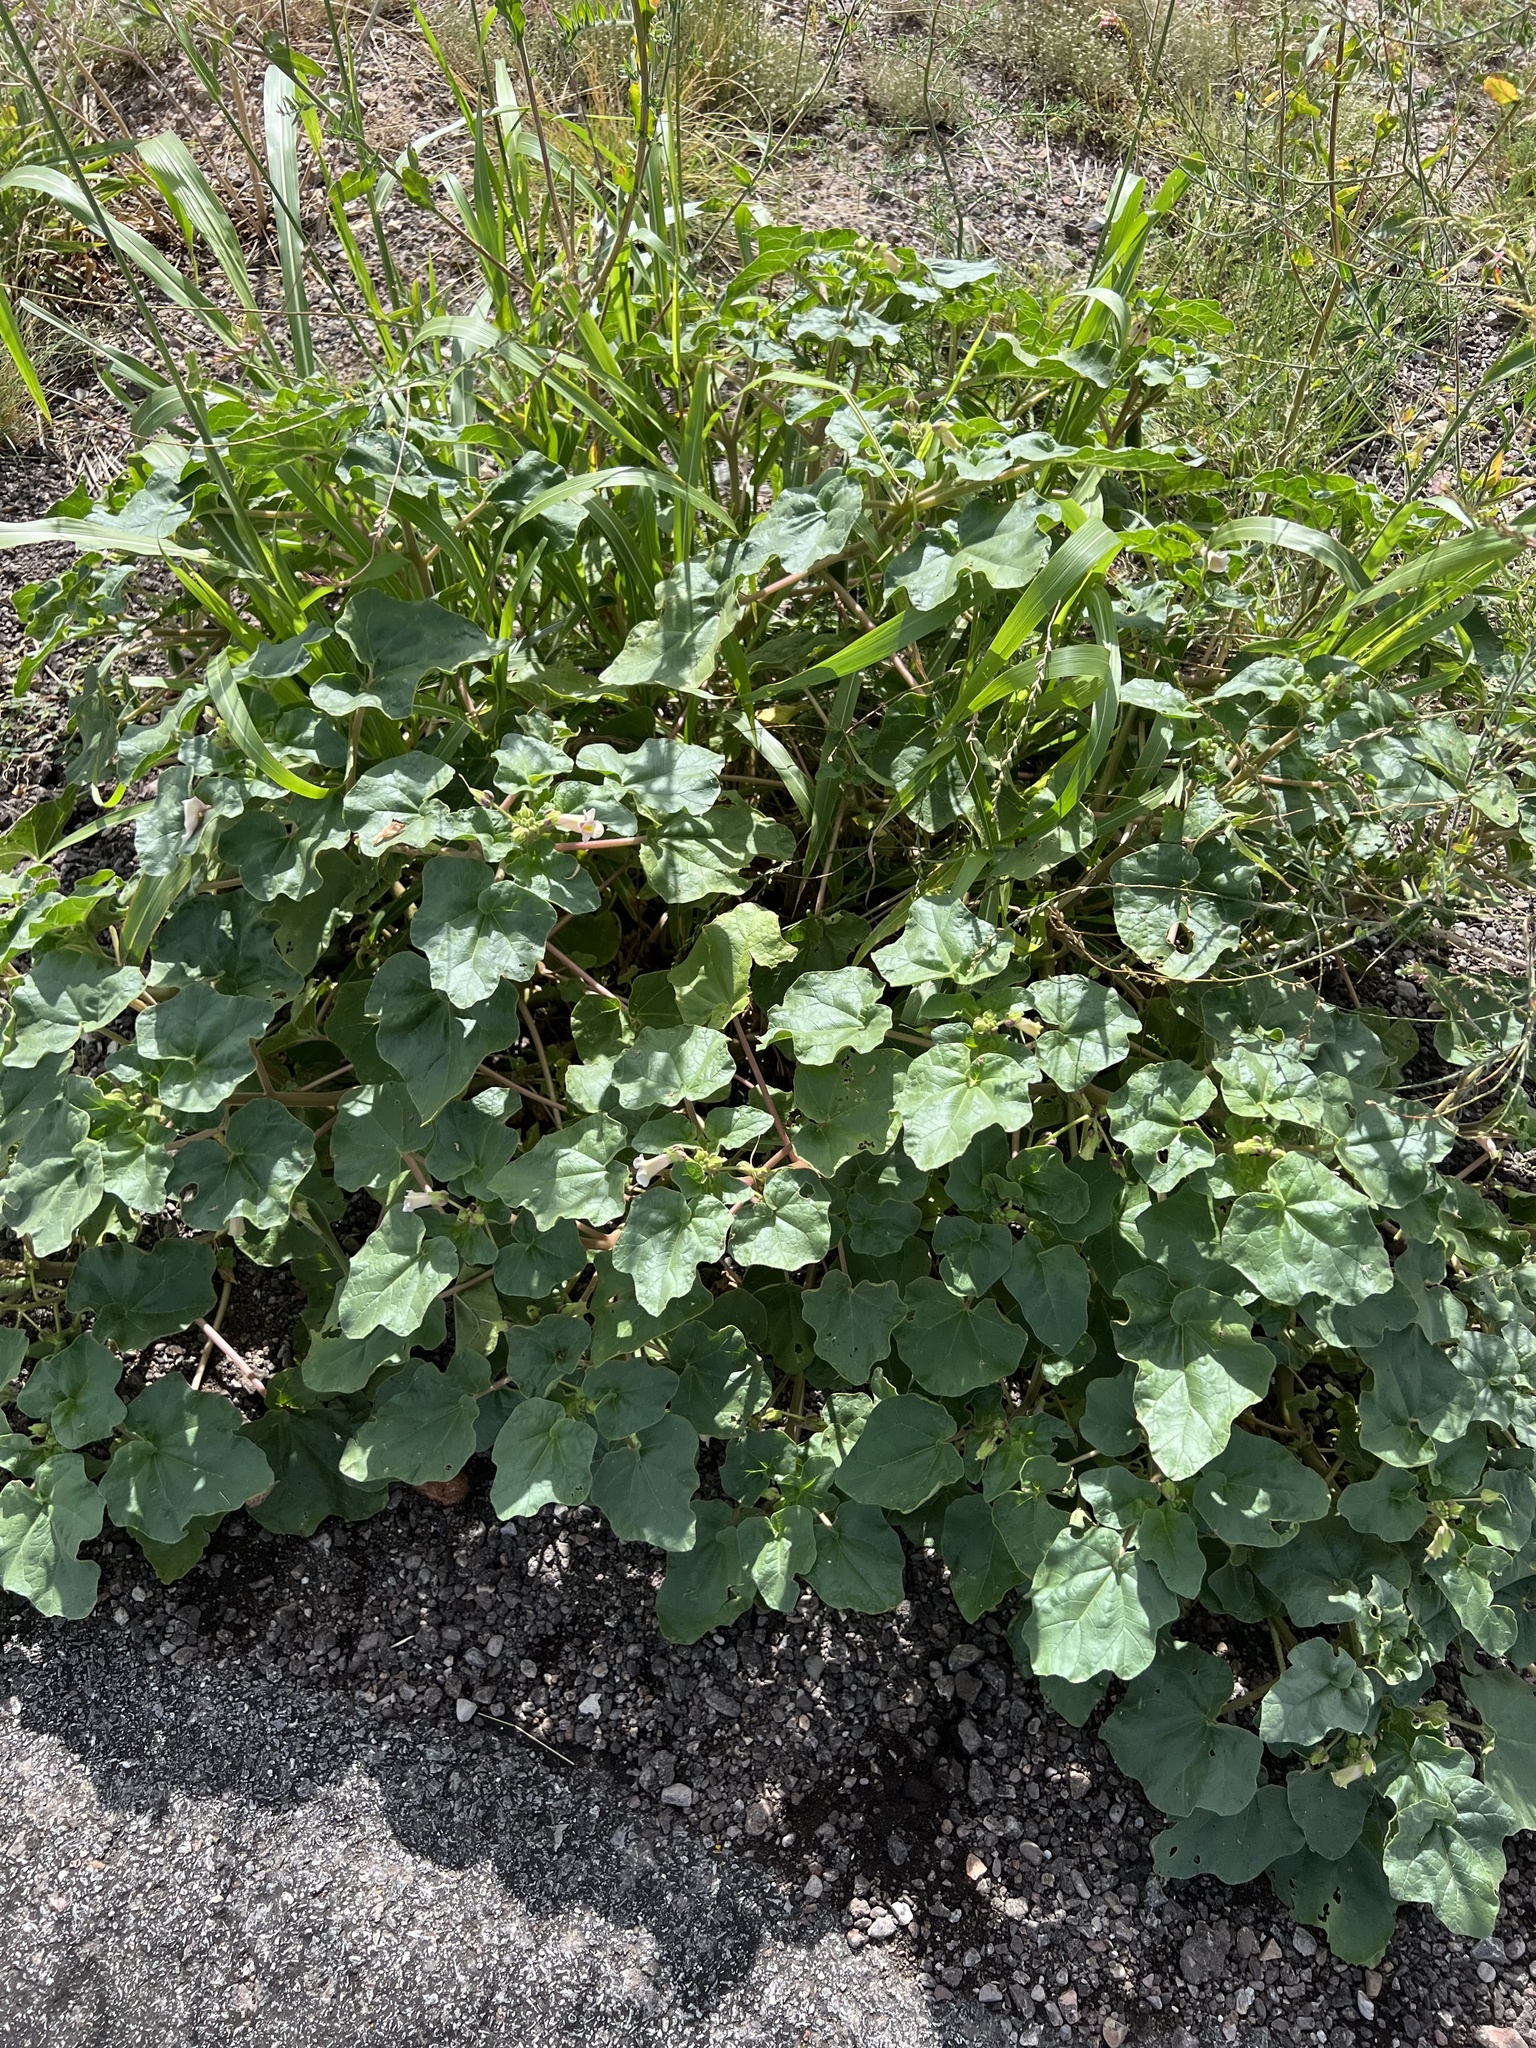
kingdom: Plantae
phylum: Tracheophyta
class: Magnoliopsida
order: Lamiales
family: Martyniaceae
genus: Proboscidea
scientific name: Proboscidea parviflora
